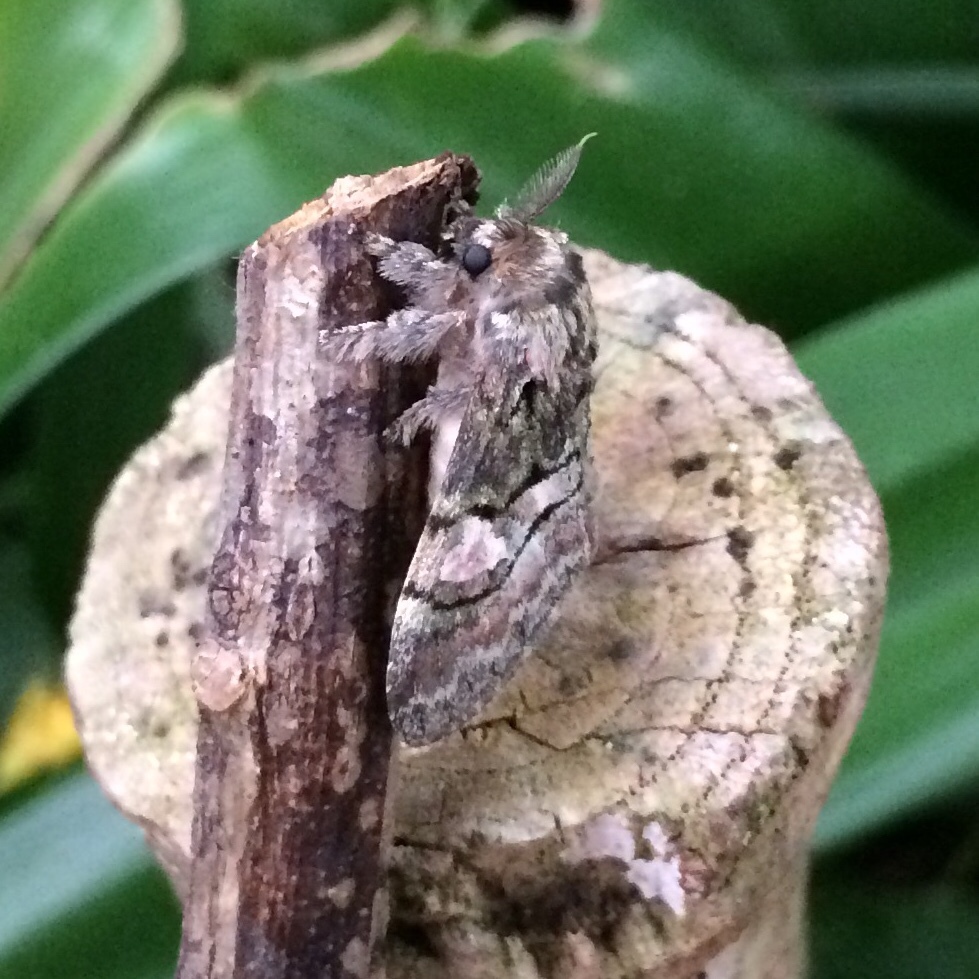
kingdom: Animalia
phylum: Arthropoda
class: Insecta
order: Lepidoptera
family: Notodontidae
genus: Rhenea
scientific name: Rhenea michii
